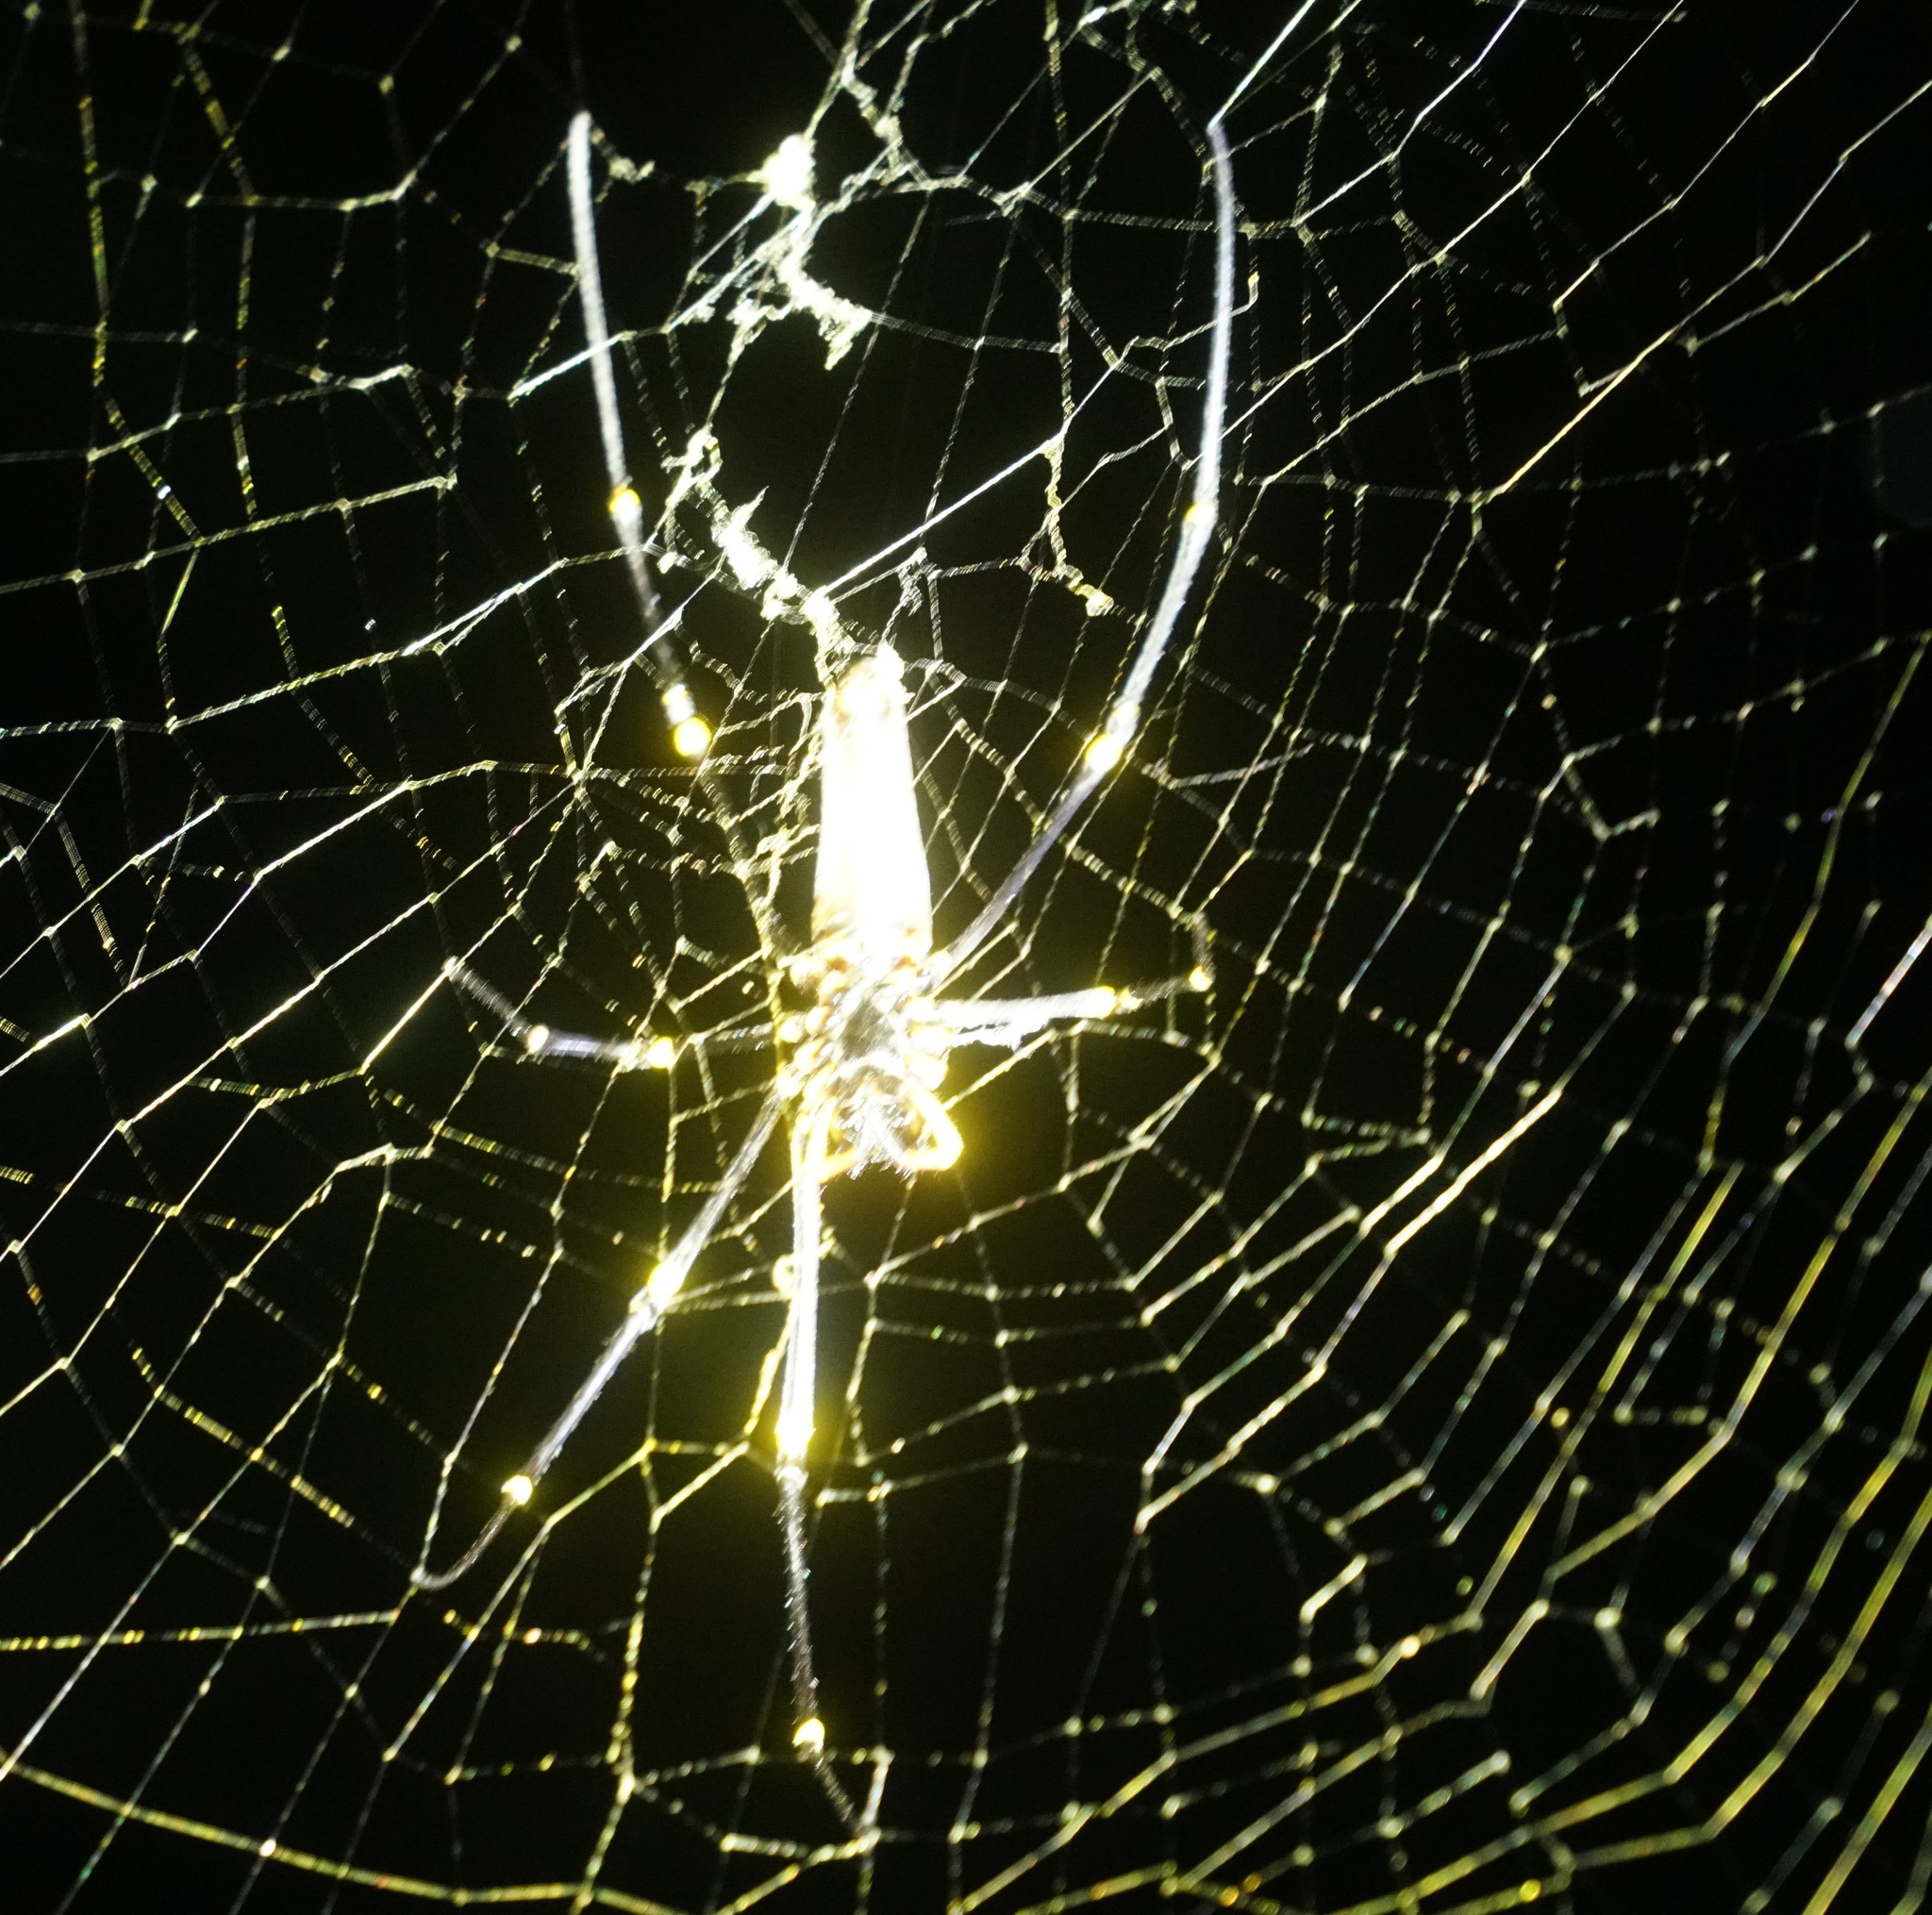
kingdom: Animalia
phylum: Arthropoda
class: Arachnida
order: Araneae
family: Araneidae
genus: Nephila
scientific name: Nephila pilipes
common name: Giant golden orb weaver
